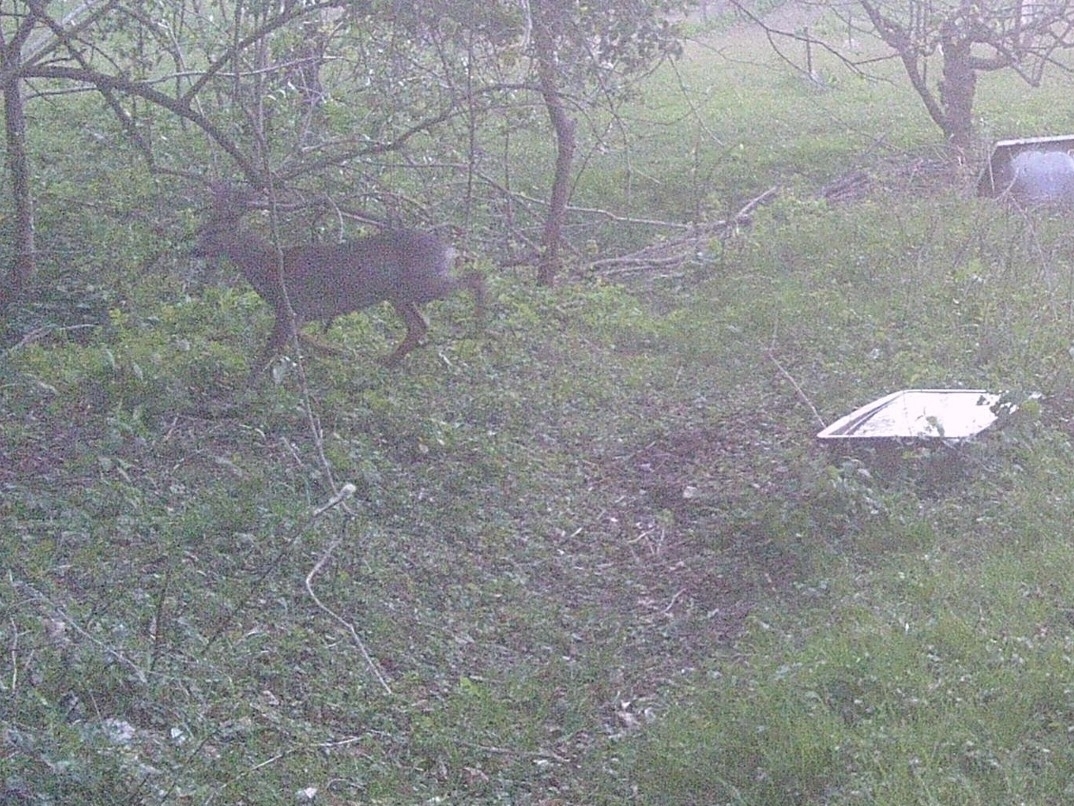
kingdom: Animalia
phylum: Chordata
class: Mammalia
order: Artiodactyla
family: Cervidae
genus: Capreolus
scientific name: Capreolus capreolus
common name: Western roe deer
